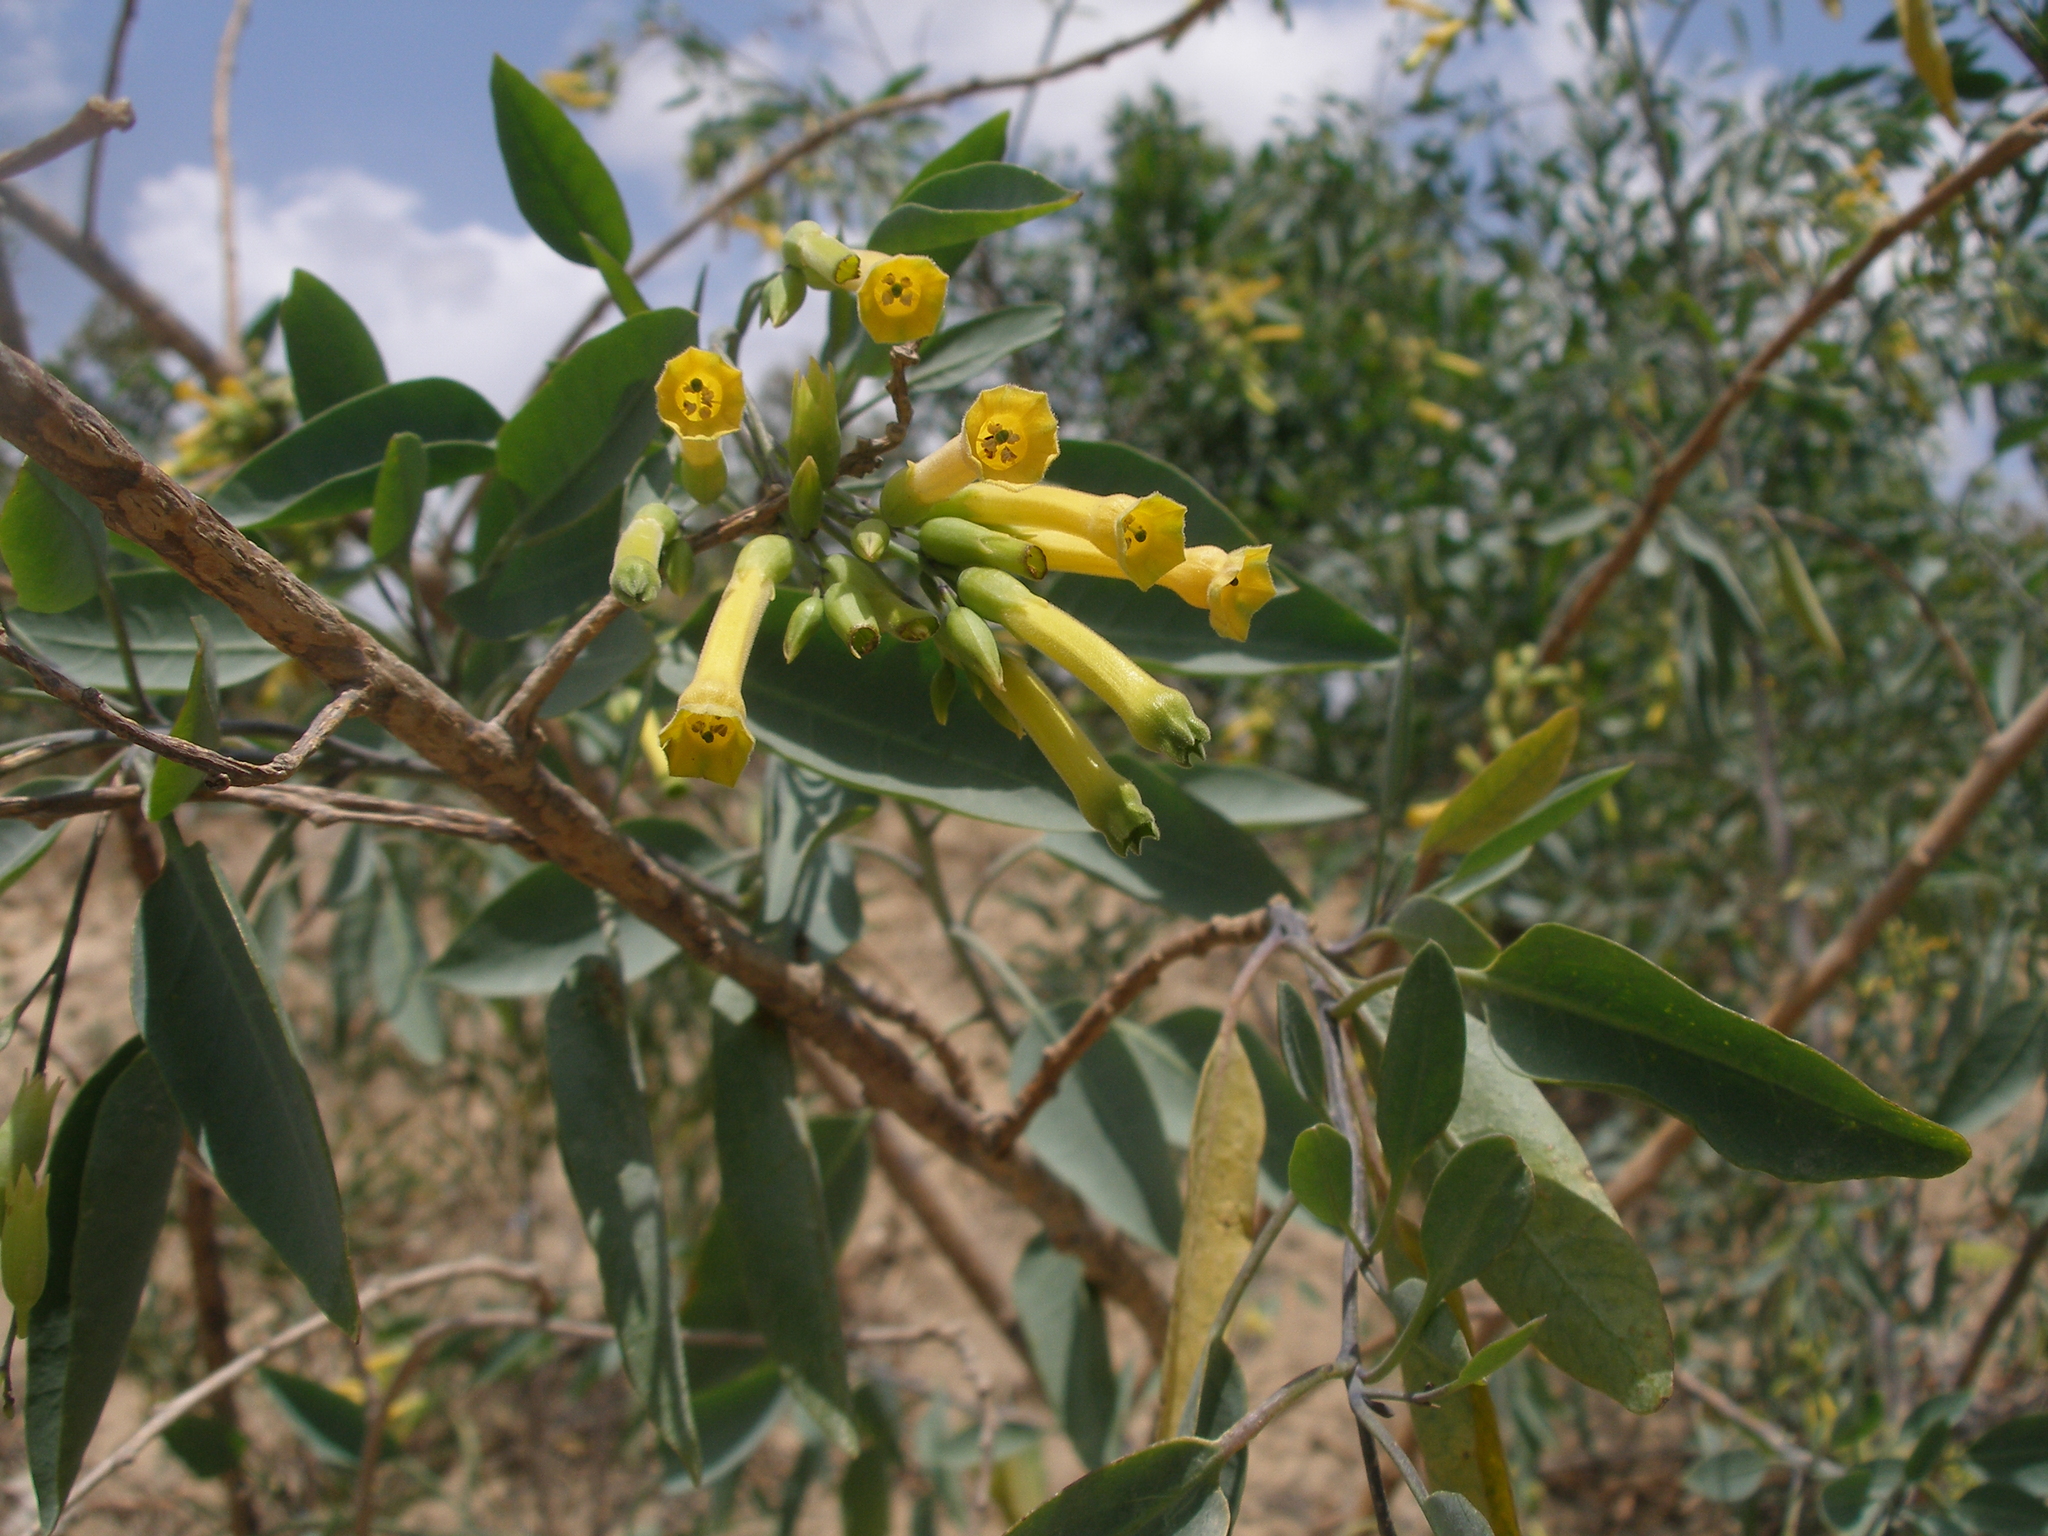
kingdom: Plantae
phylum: Tracheophyta
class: Magnoliopsida
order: Solanales
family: Solanaceae
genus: Nicotiana
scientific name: Nicotiana glauca
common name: Tree tobacco
